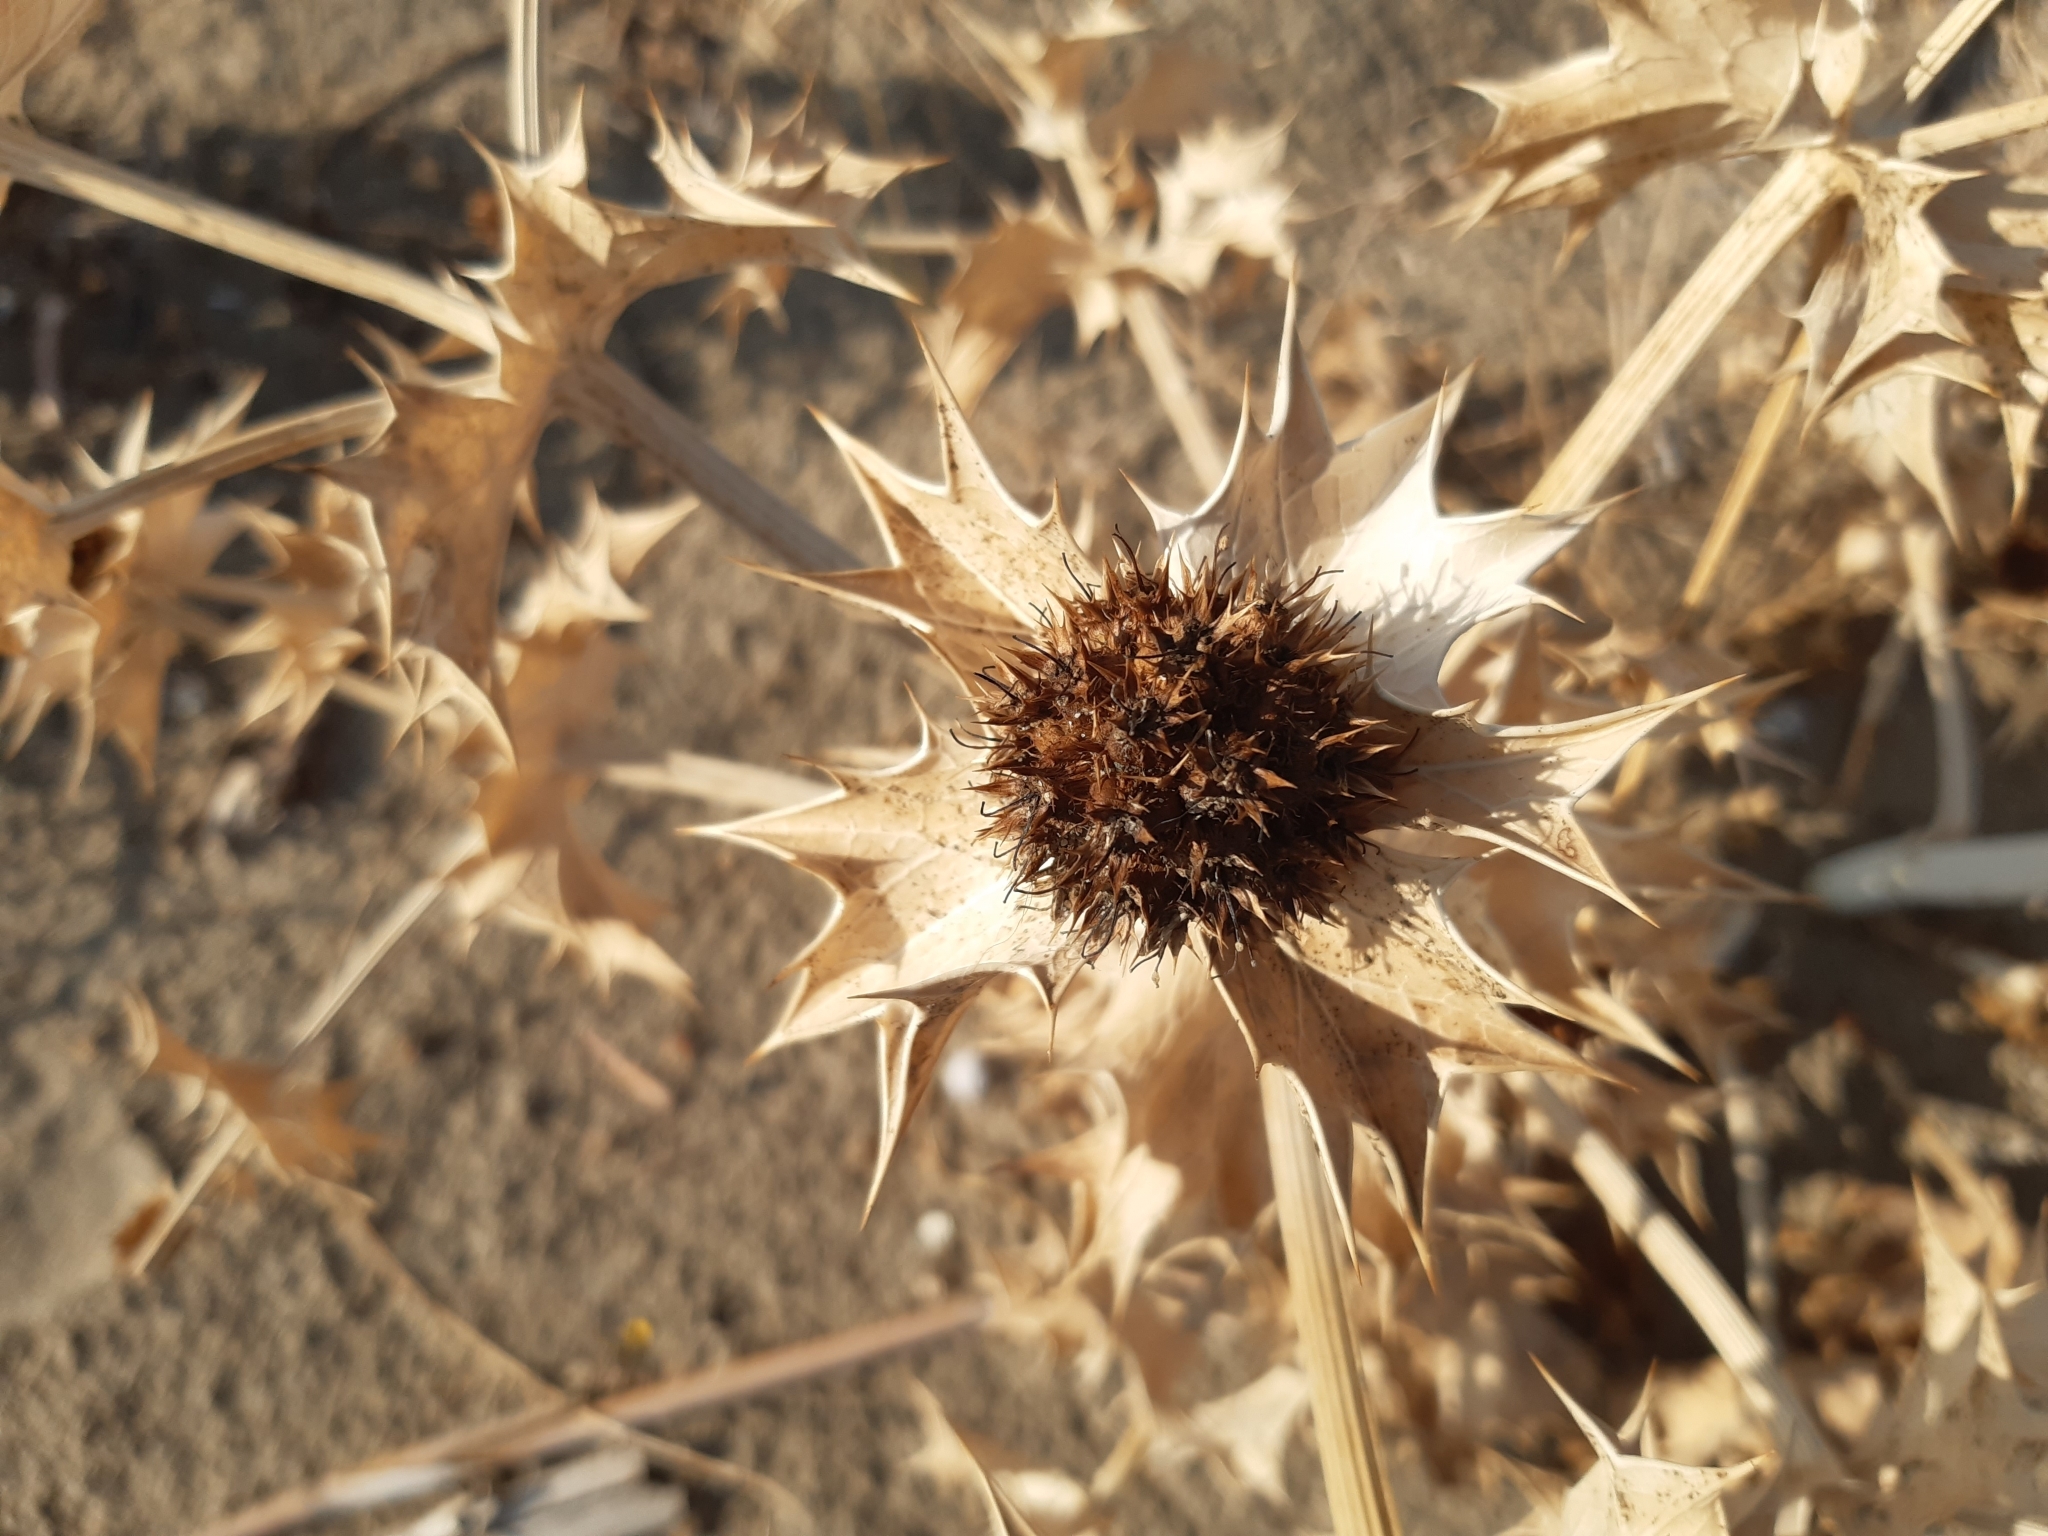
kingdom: Plantae
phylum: Tracheophyta
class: Magnoliopsida
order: Apiales
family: Apiaceae
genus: Eryngium
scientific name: Eryngium maritimum
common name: Sea-holly
